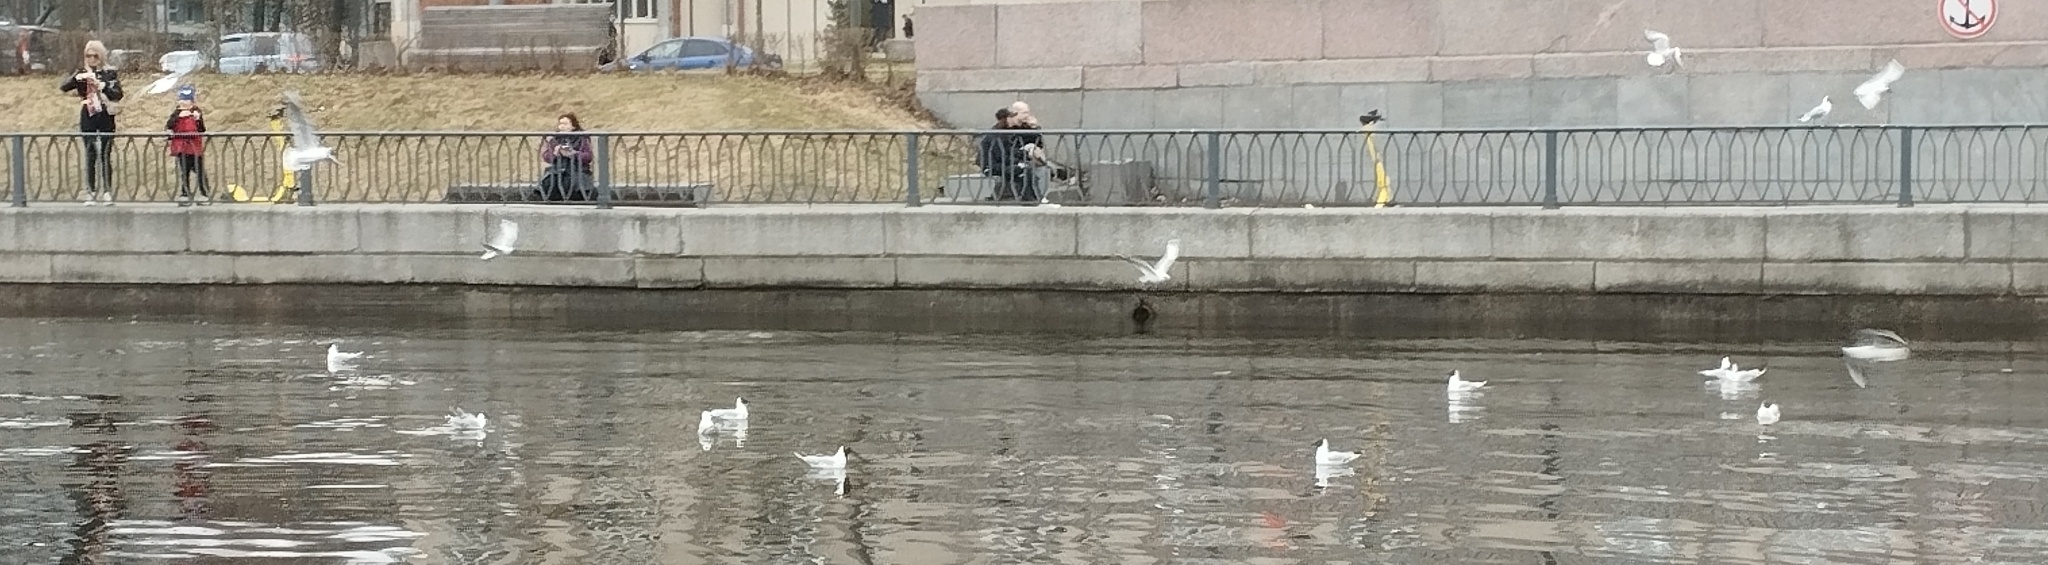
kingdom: Animalia
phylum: Chordata
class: Aves
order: Charadriiformes
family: Laridae
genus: Chroicocephalus
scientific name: Chroicocephalus ridibundus
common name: Black-headed gull
